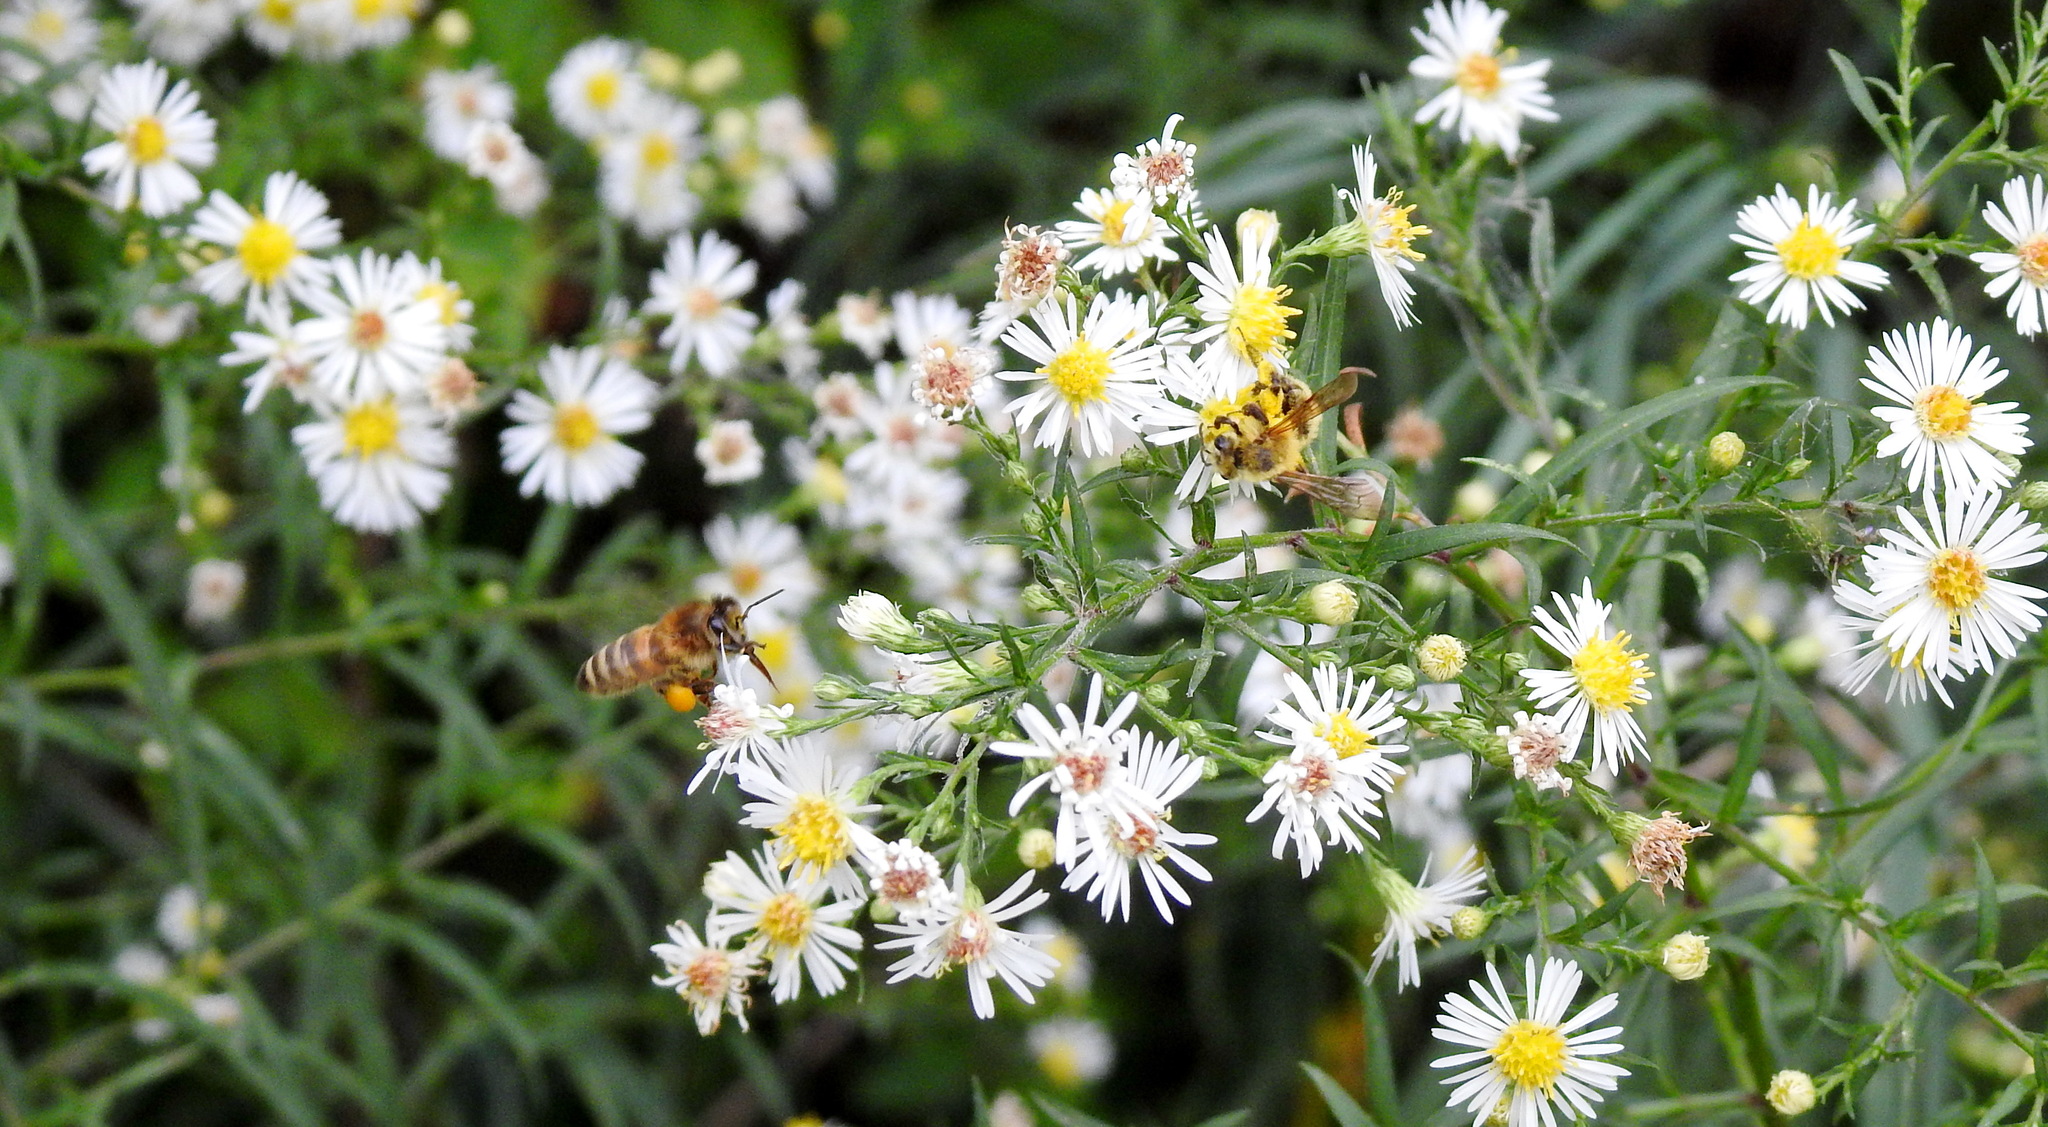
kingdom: Plantae
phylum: Tracheophyta
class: Magnoliopsida
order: Asterales
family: Asteraceae
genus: Symphyotrichum
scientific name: Symphyotrichum lanceolatum
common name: Panicled aster
